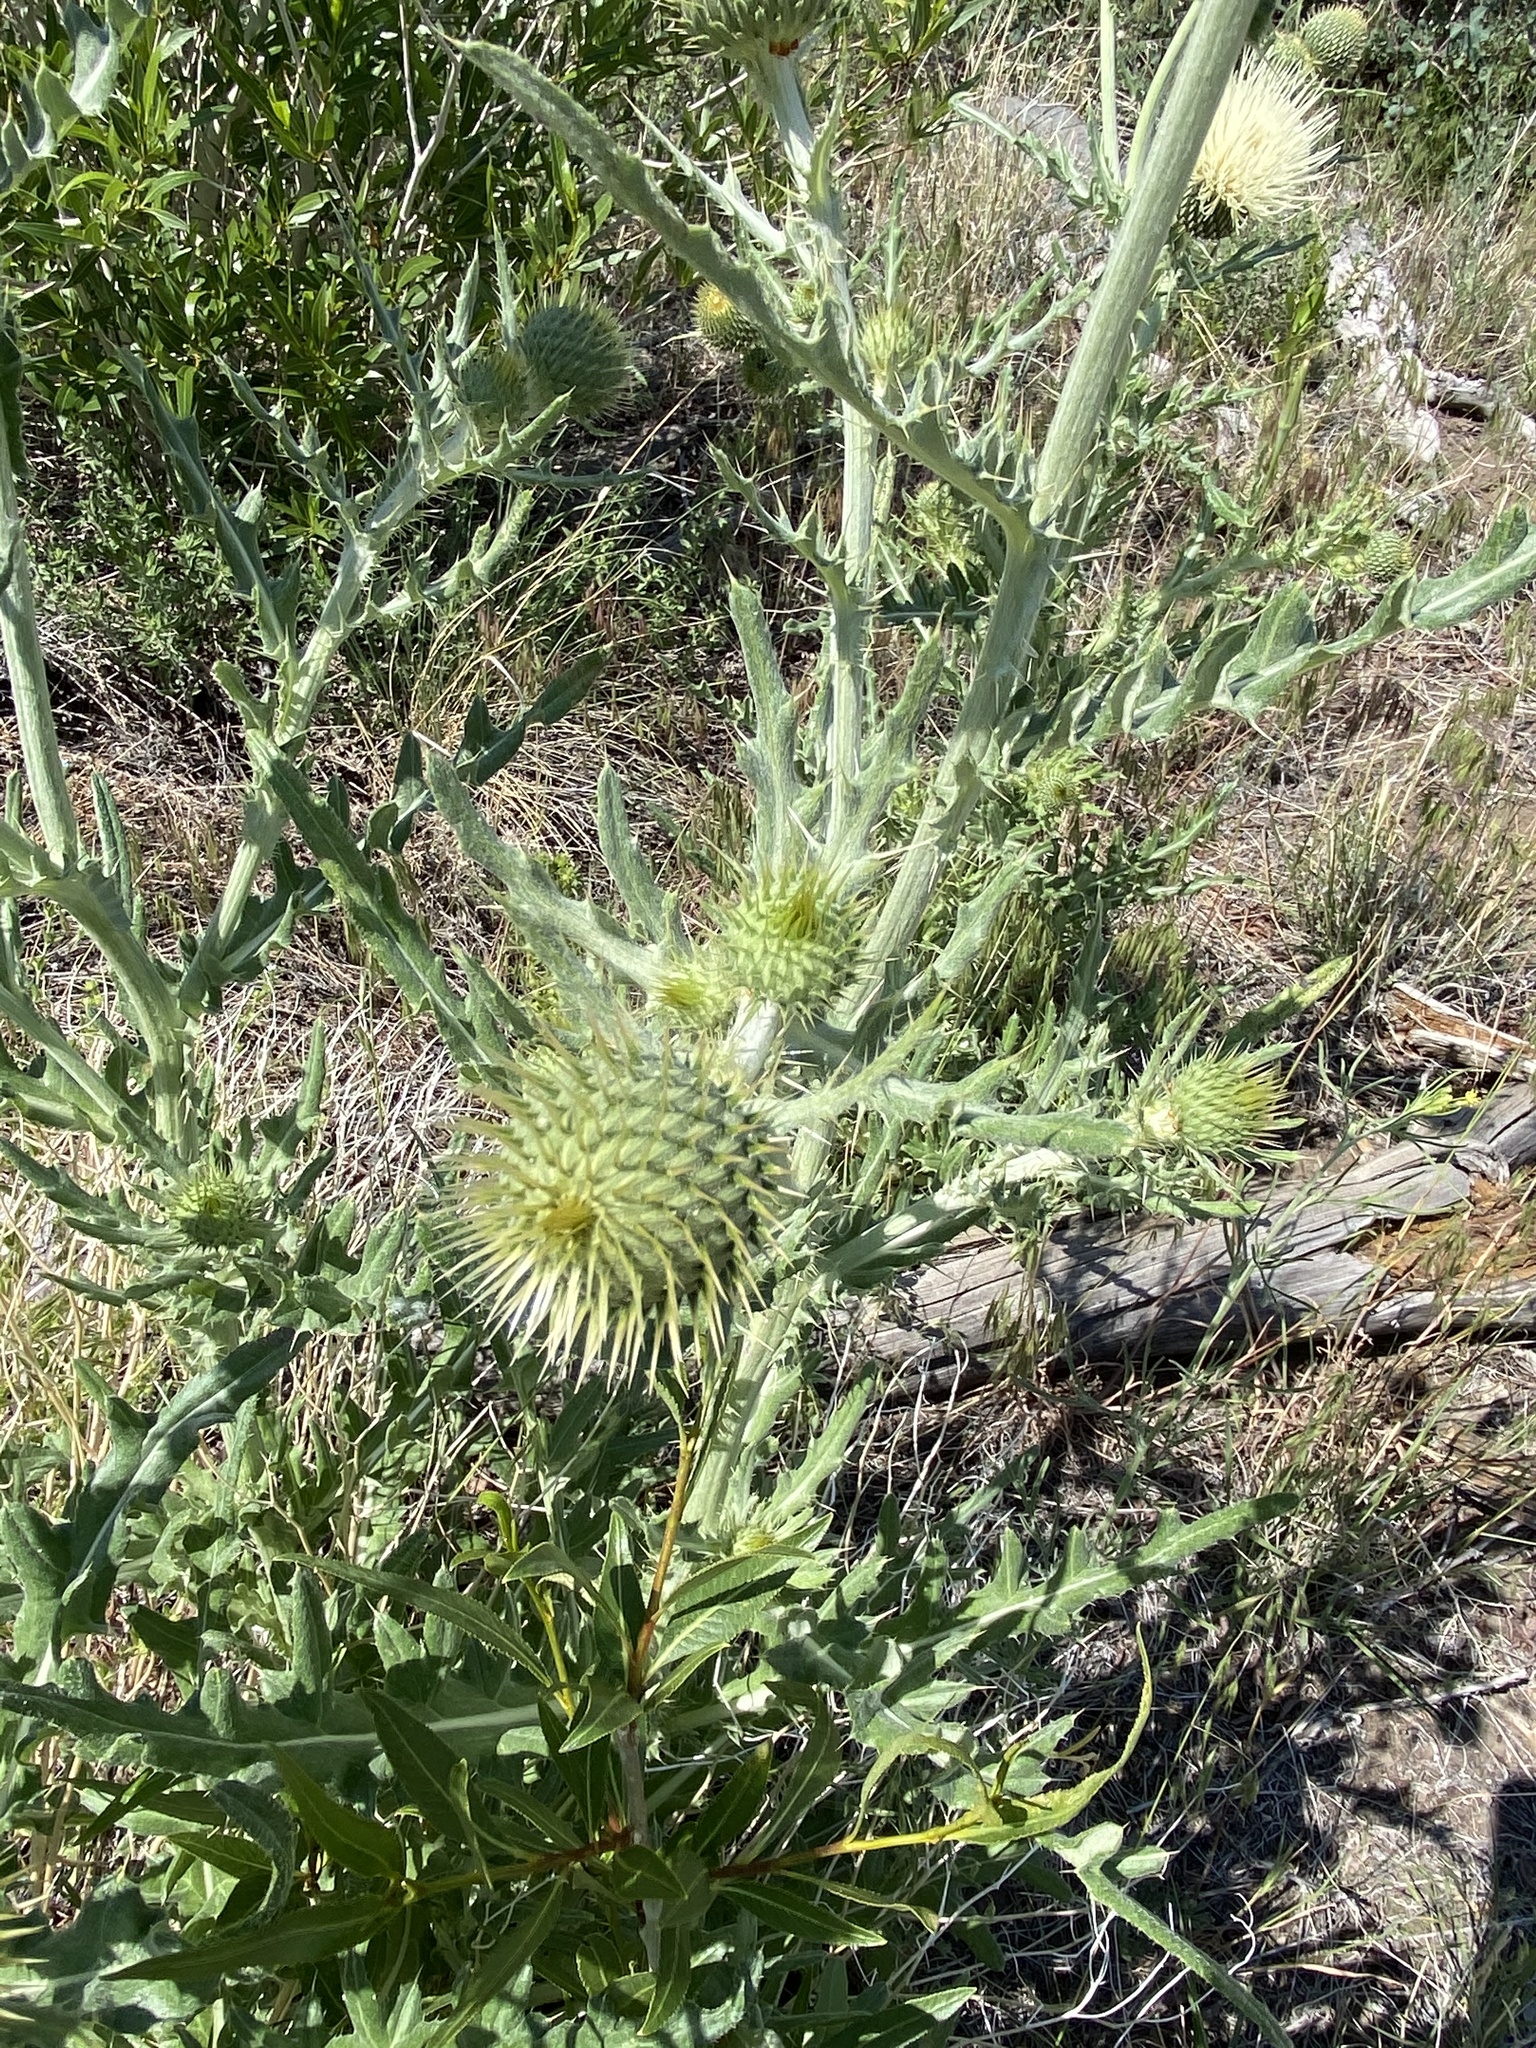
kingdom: Plantae
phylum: Tracheophyta
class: Magnoliopsida
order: Asterales
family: Asteraceae
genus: Cirsium
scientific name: Cirsium canescens
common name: Prairie thistle
